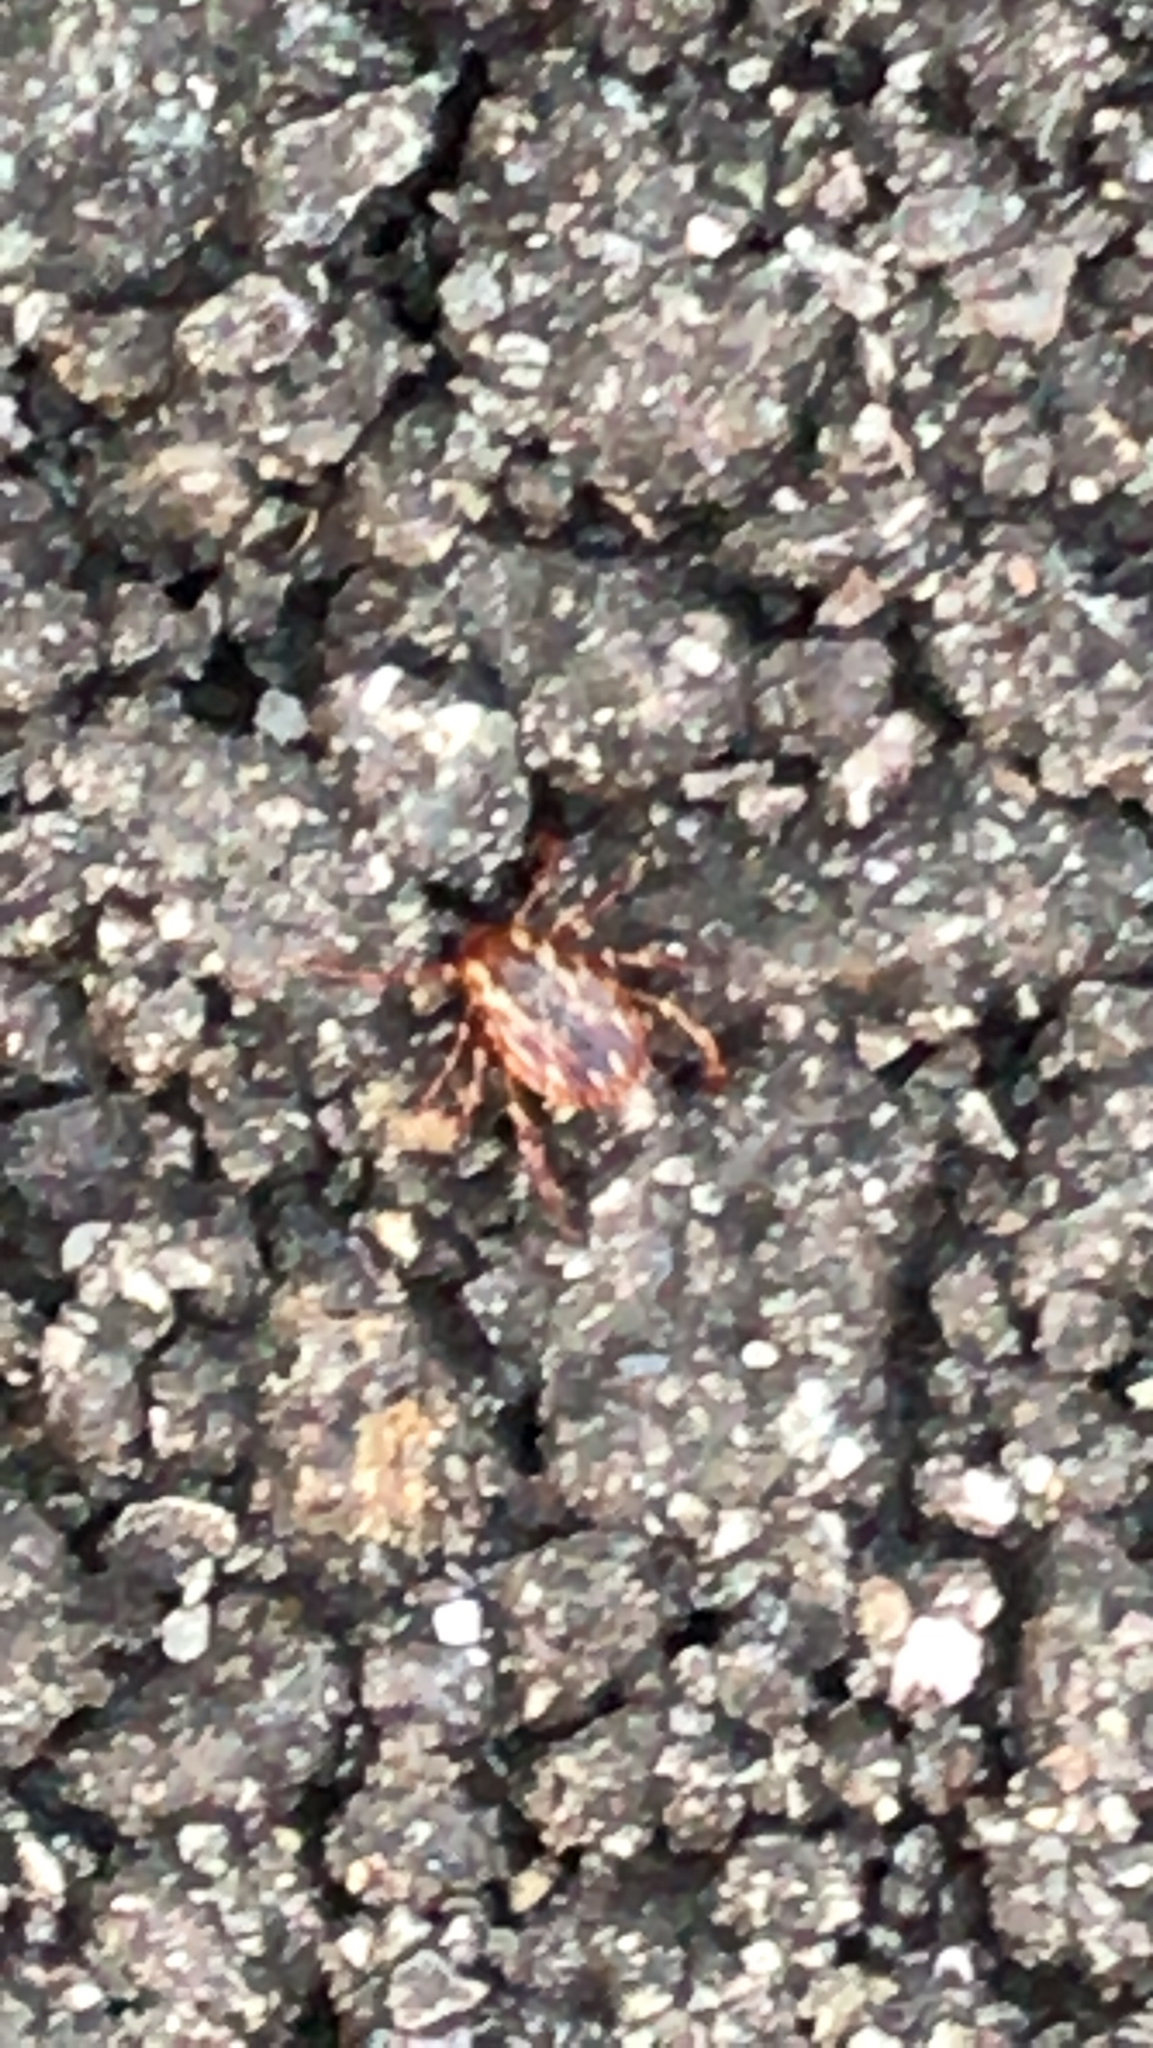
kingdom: Animalia
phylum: Arthropoda
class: Arachnida
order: Ixodida
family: Ixodidae
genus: Dermacentor
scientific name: Dermacentor variabilis
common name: American dog tick
